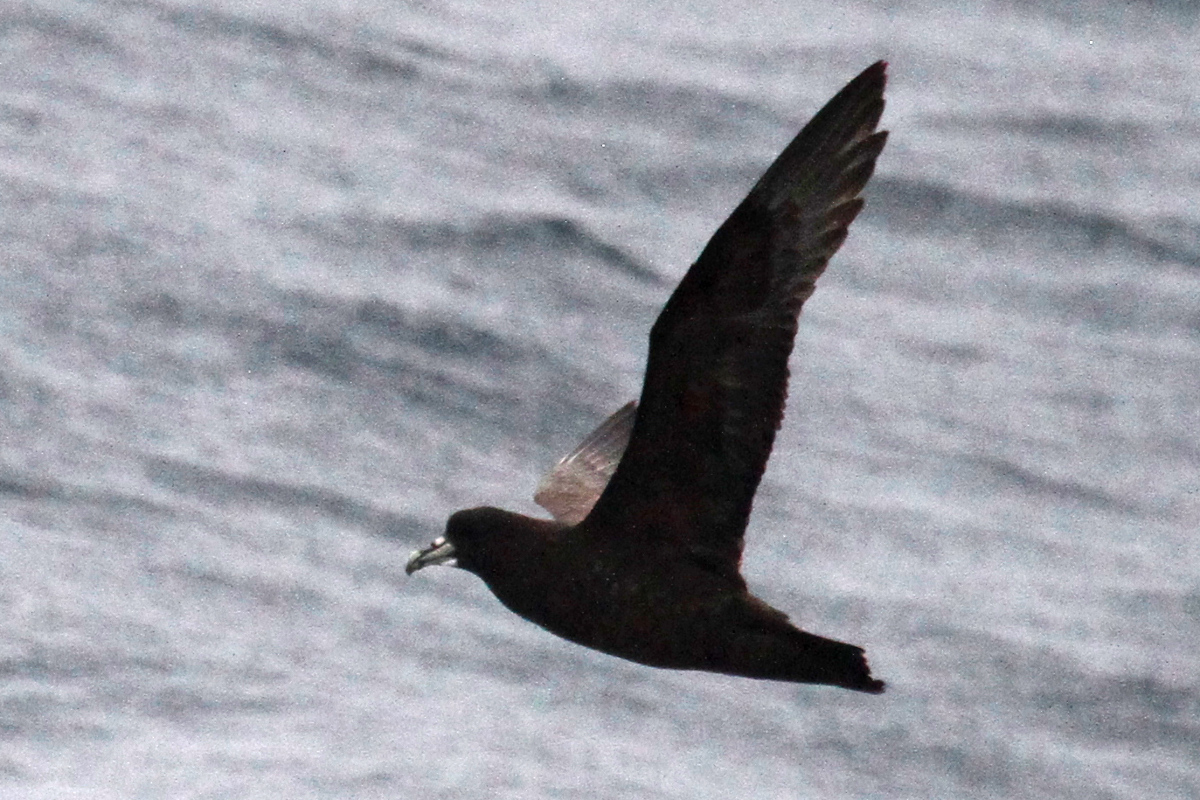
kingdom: Animalia
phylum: Chordata
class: Aves
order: Procellariiformes
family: Procellariidae
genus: Procellaria
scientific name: Procellaria aequinoctialis
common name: White-chinned petrel
